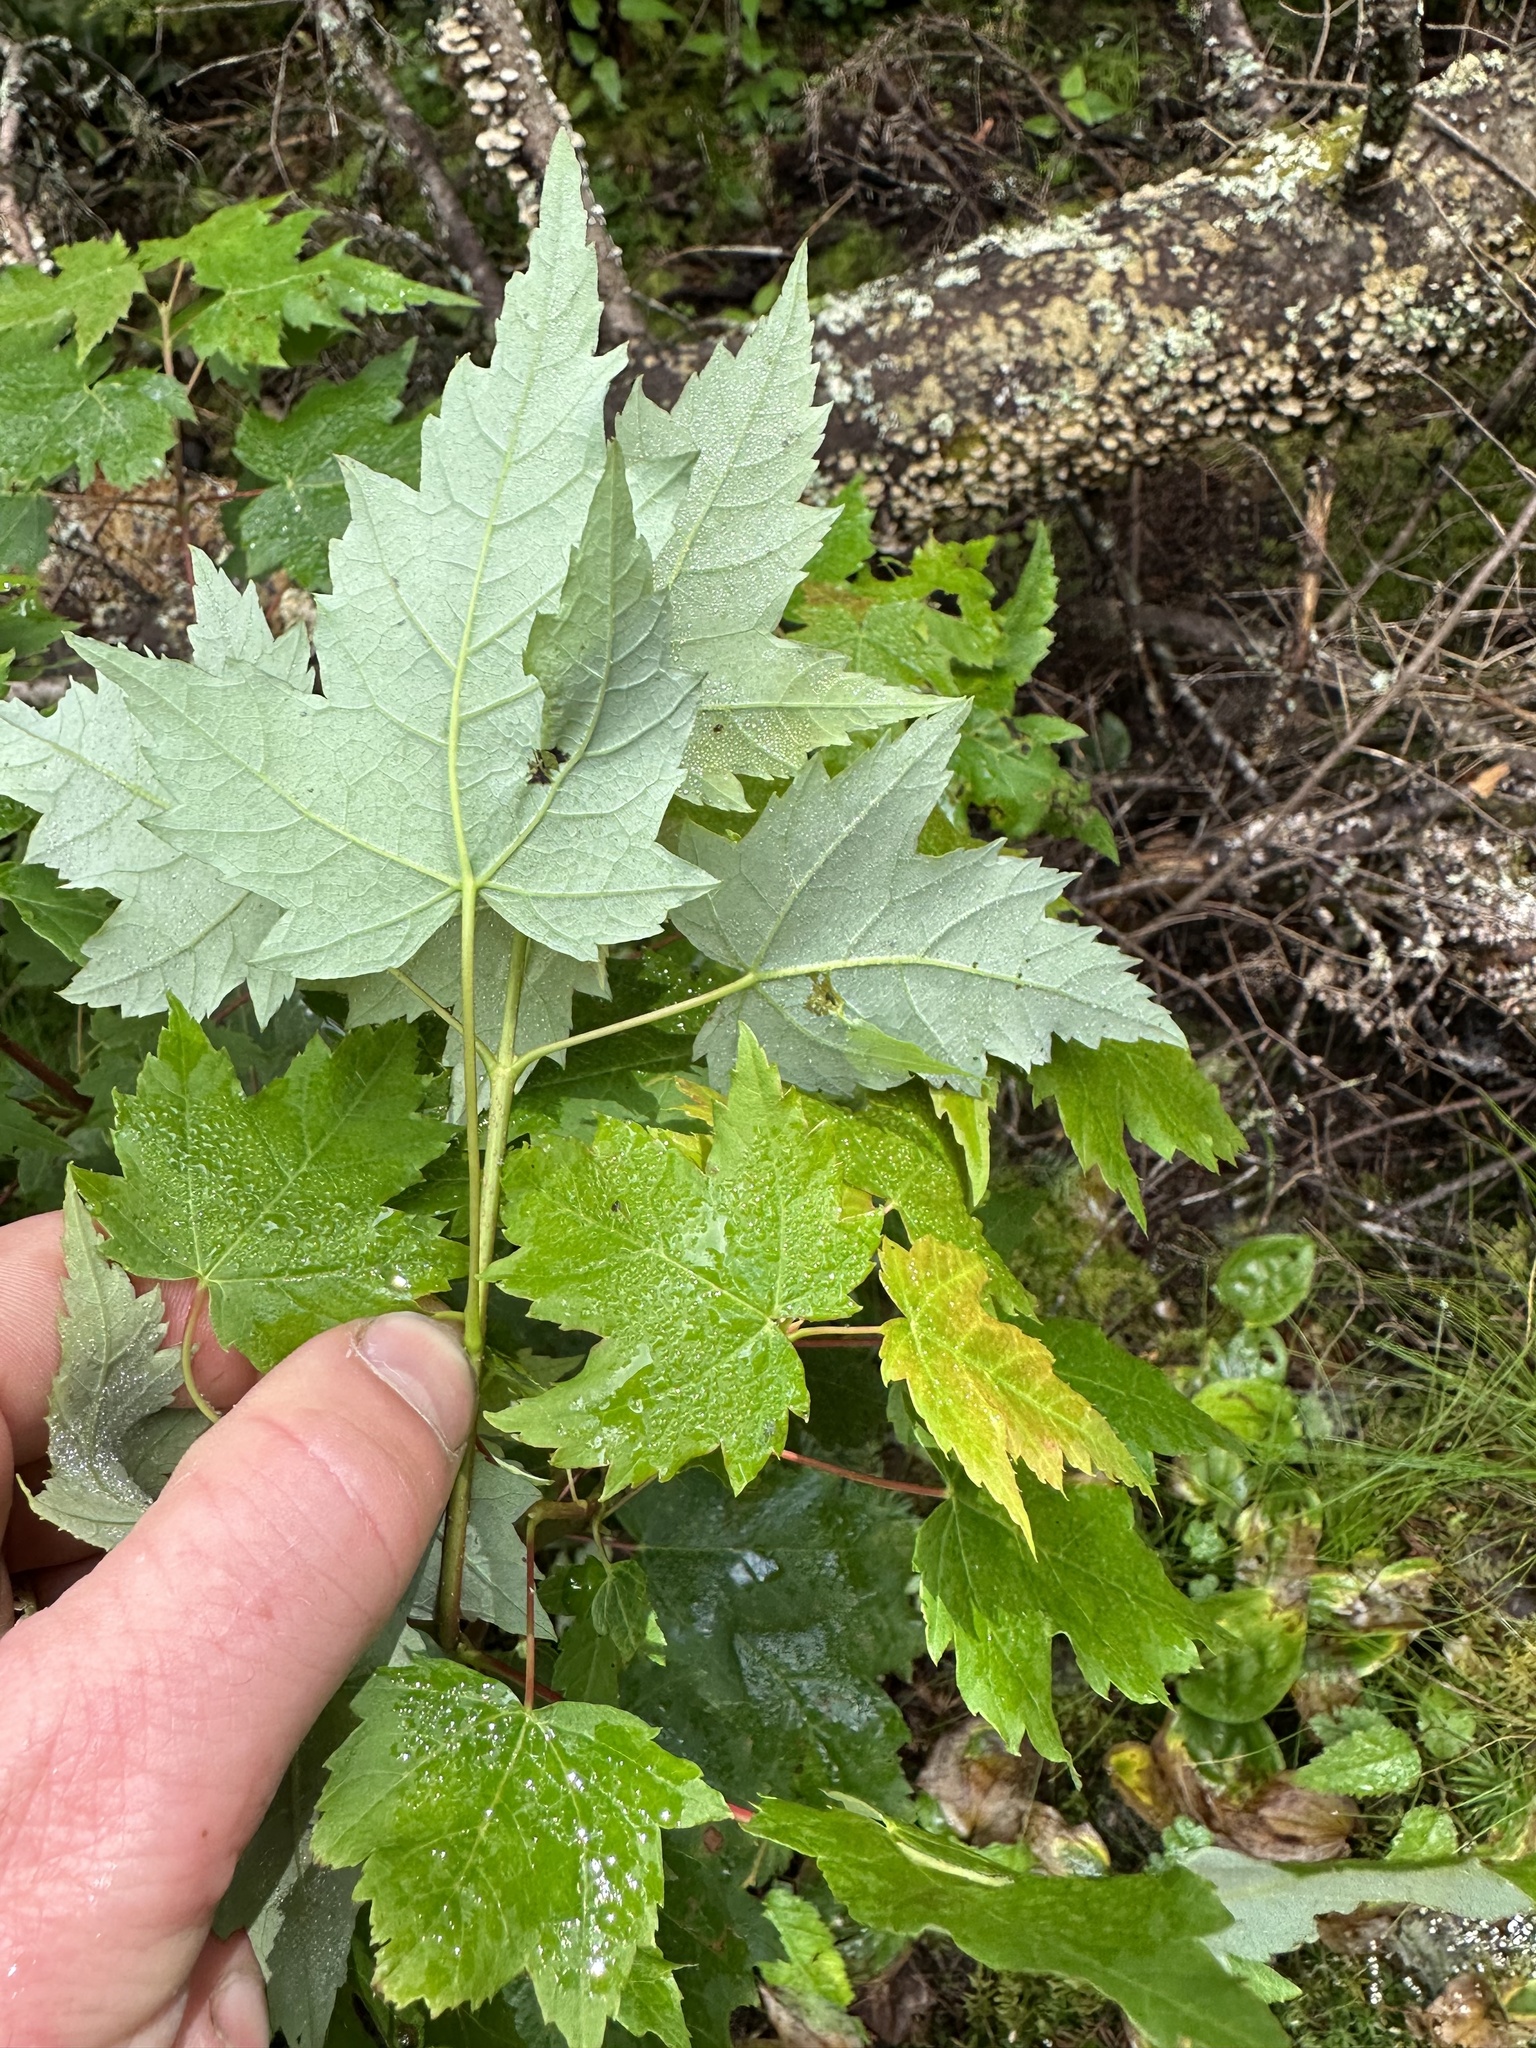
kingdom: Plantae
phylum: Tracheophyta
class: Magnoliopsida
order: Sapindales
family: Sapindaceae
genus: Acer
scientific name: Acer rubrum
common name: Red maple
